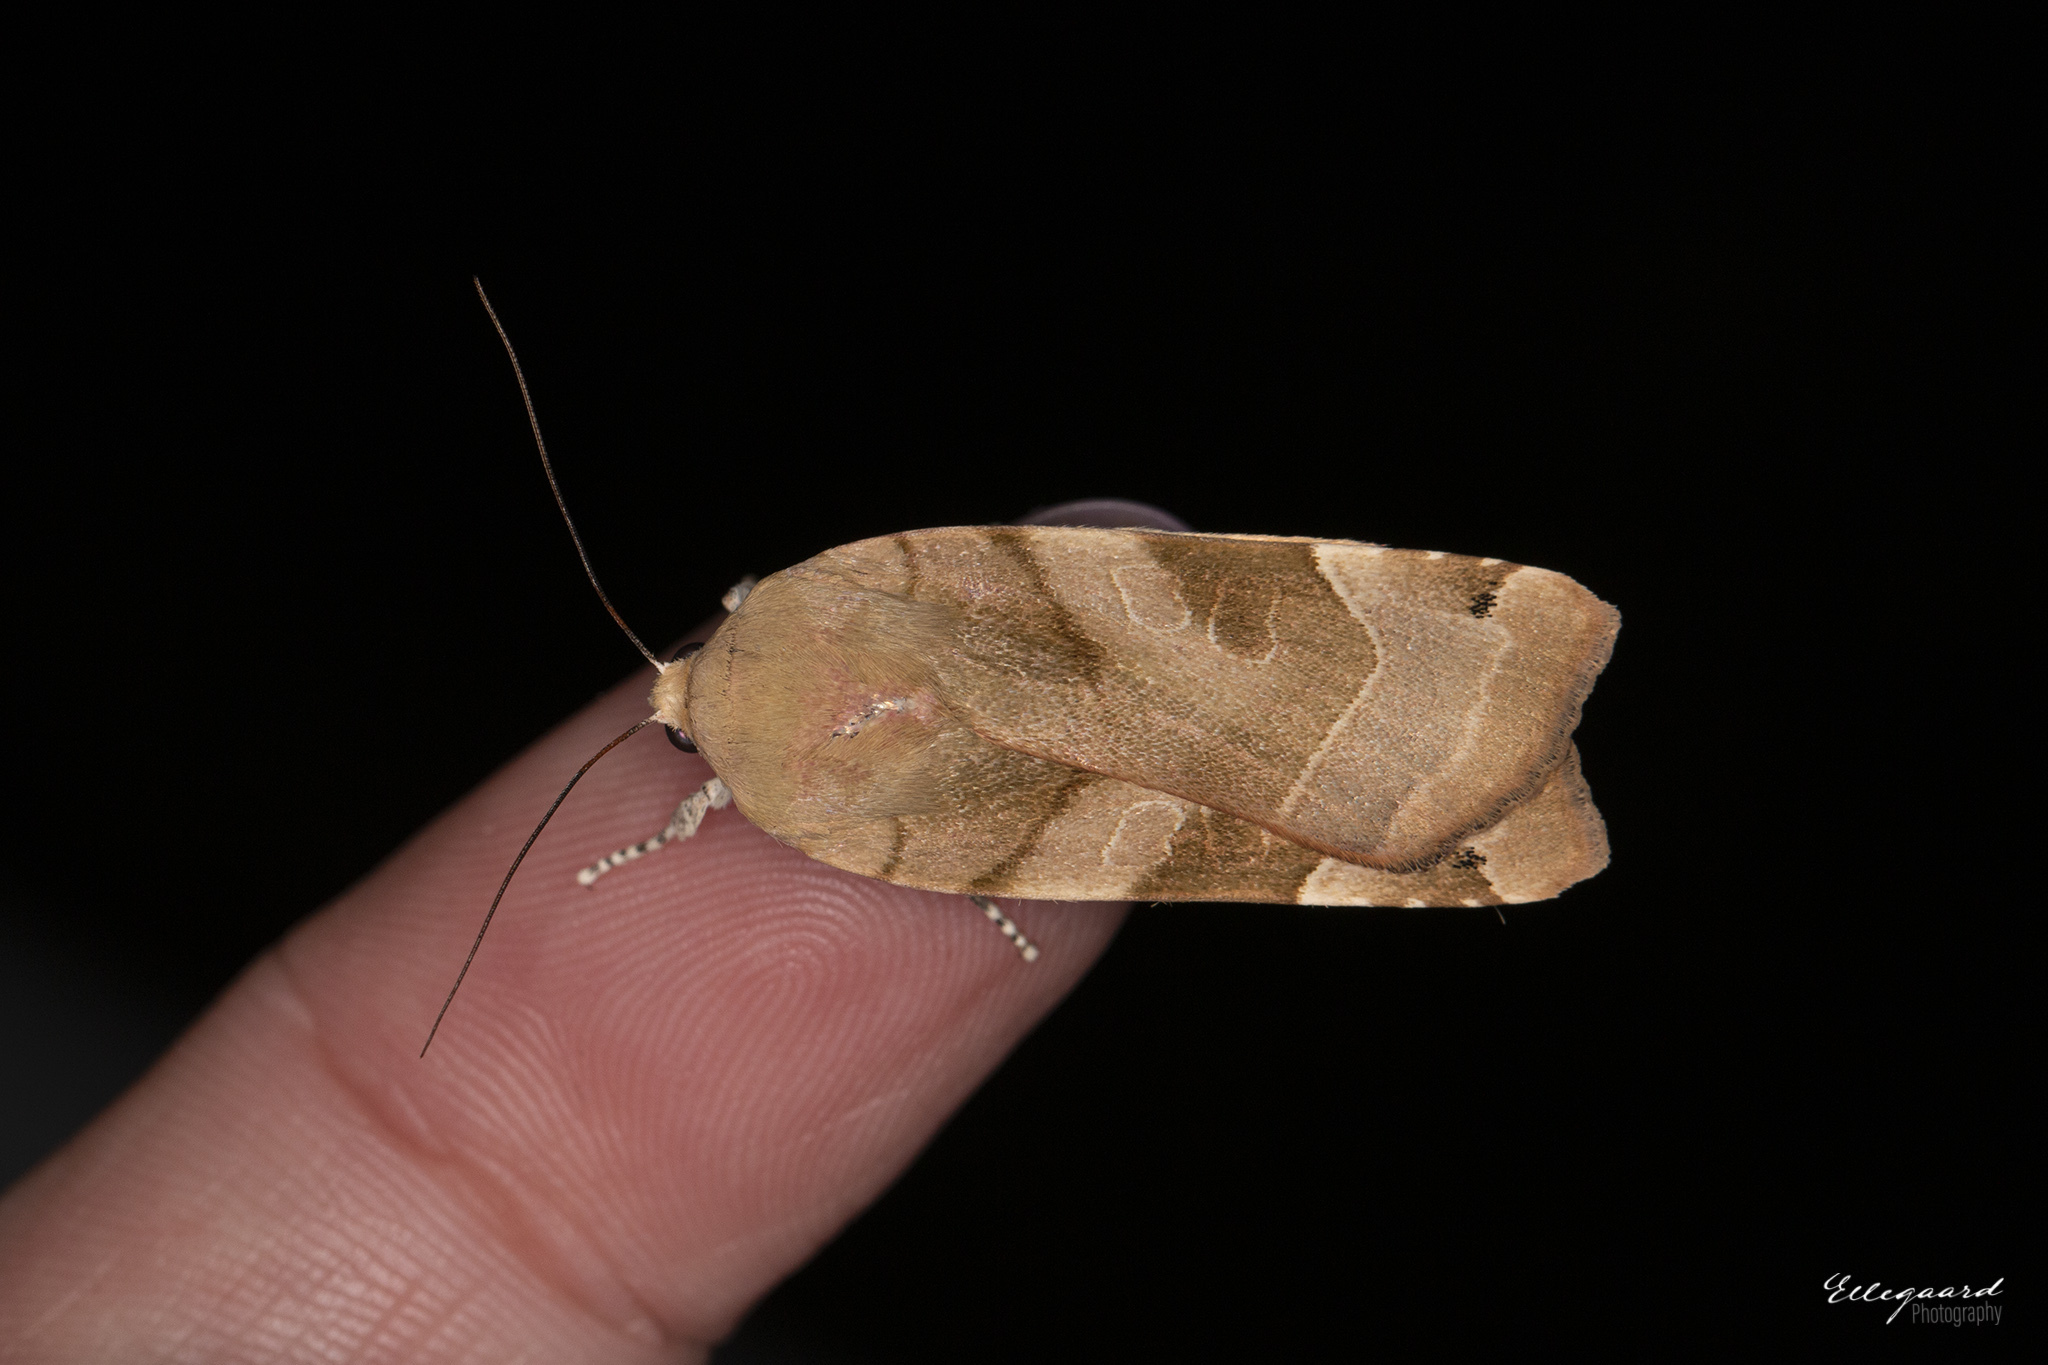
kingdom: Animalia
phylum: Arthropoda
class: Insecta
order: Lepidoptera
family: Noctuidae
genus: Noctua
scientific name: Noctua fimbriata
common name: Broad-bordered yellow underwing
